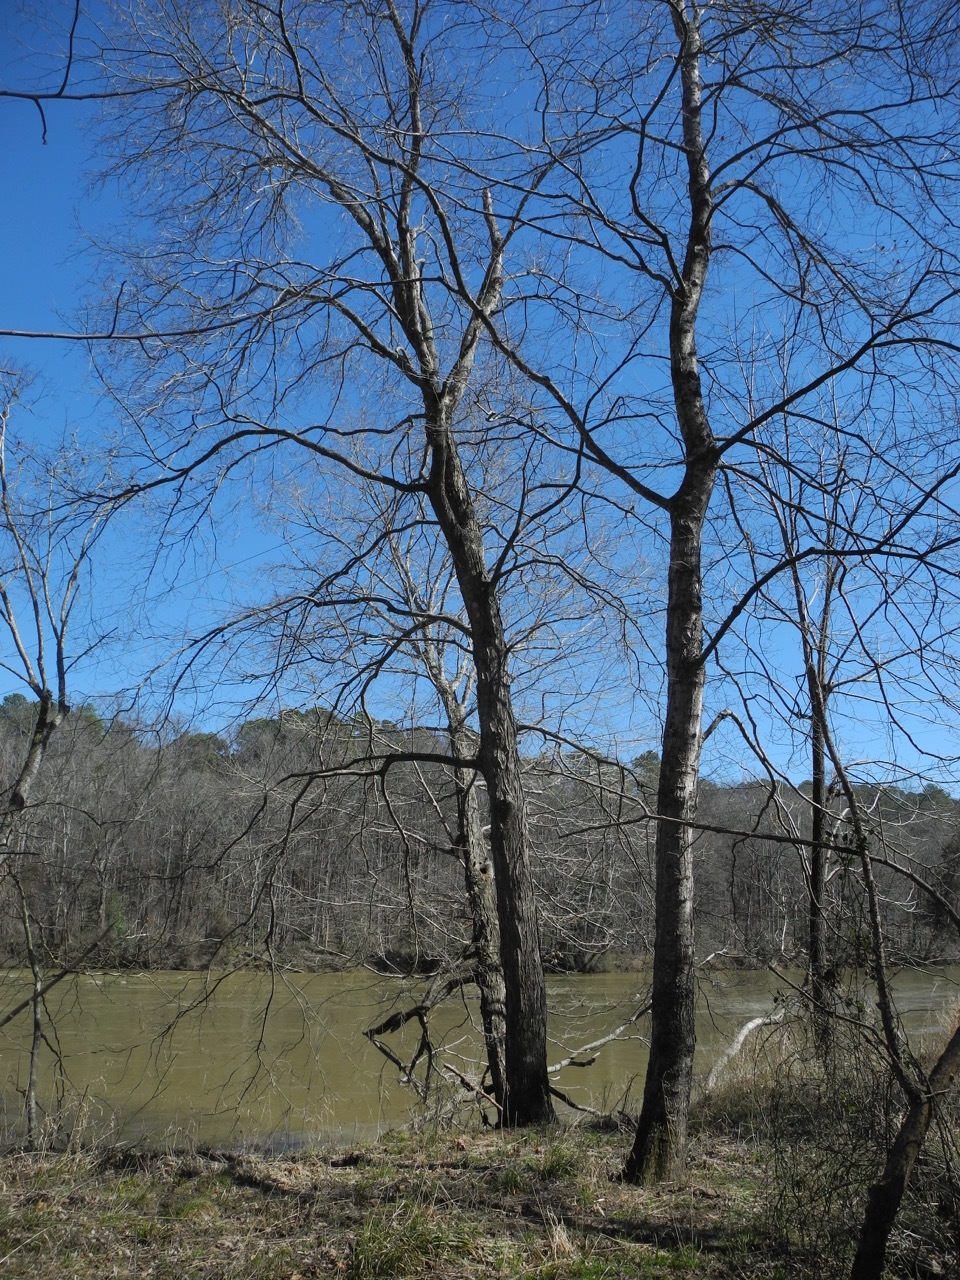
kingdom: Plantae
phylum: Tracheophyta
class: Magnoliopsida
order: Sapindales
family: Sapindaceae
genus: Acer
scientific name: Acer floridanum
